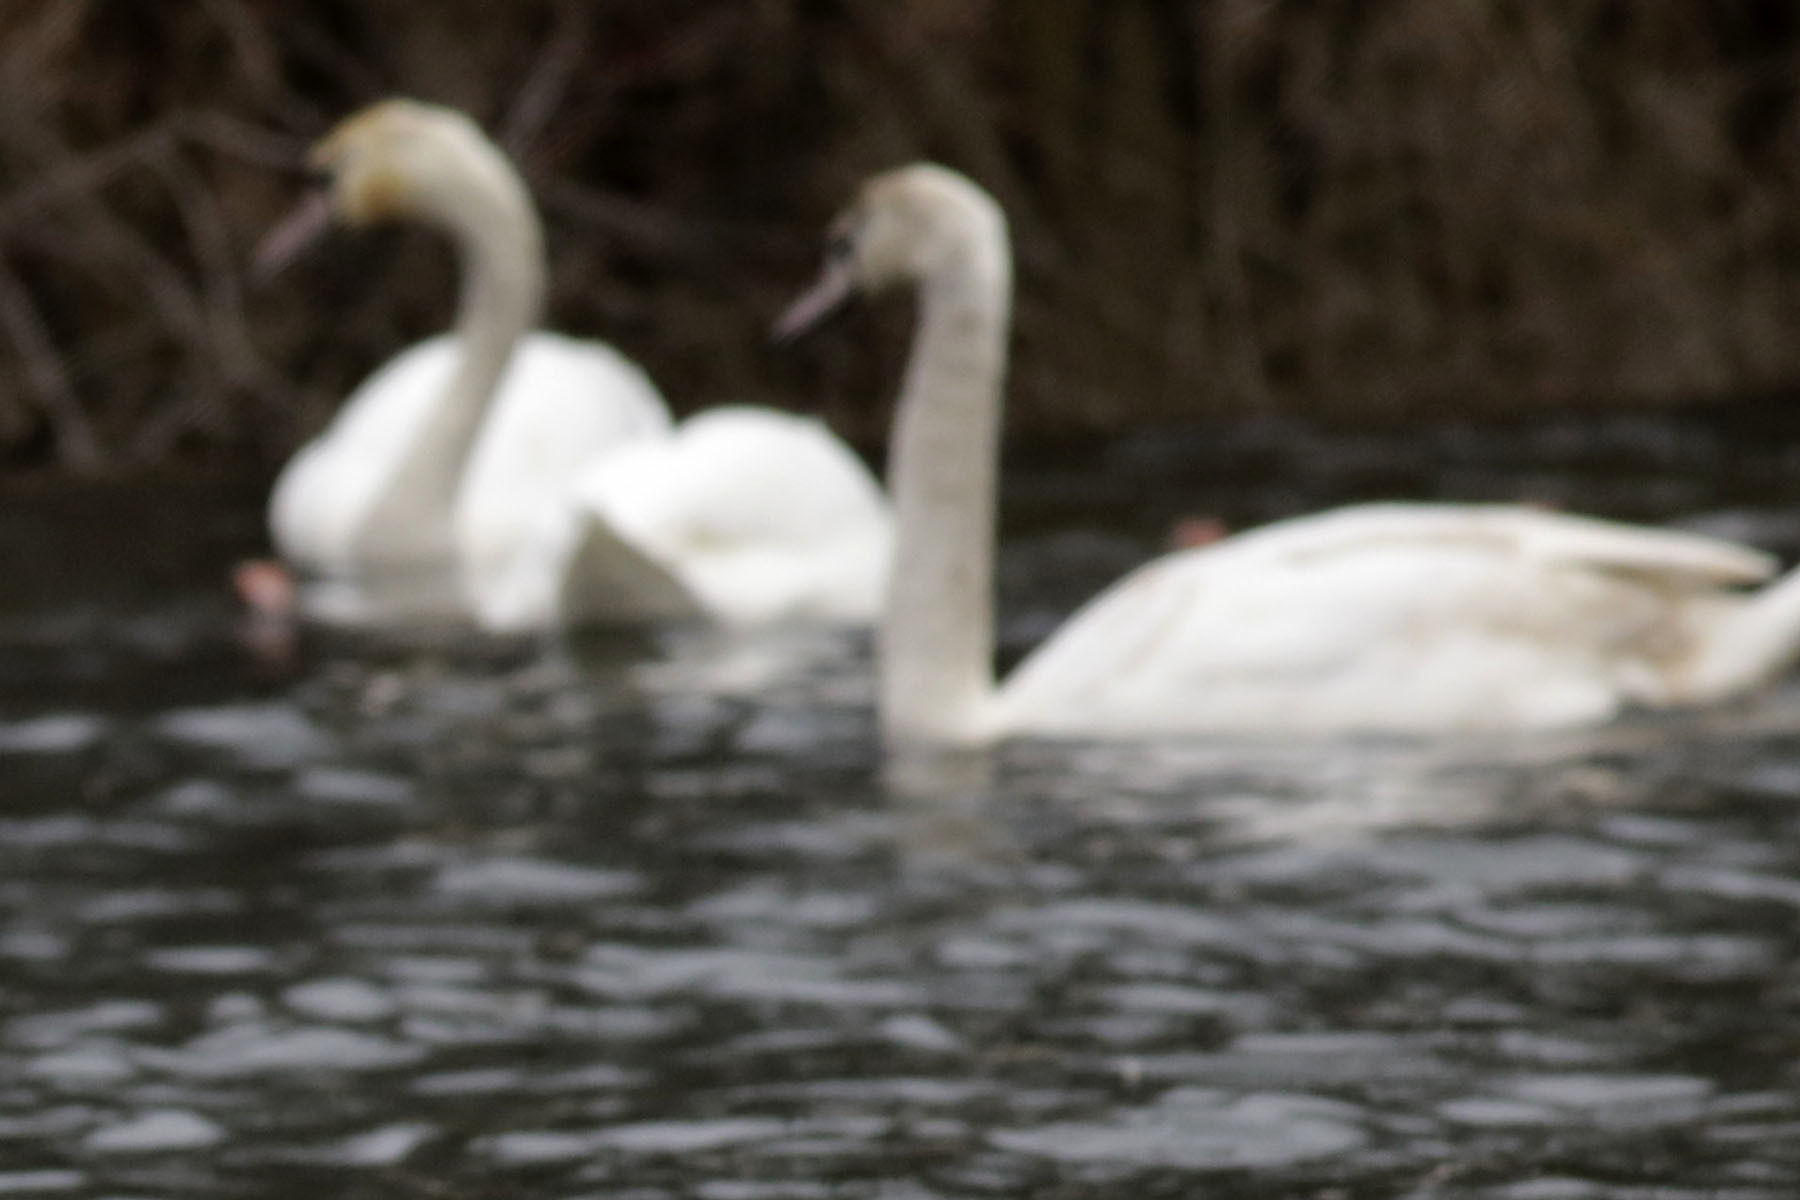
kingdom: Animalia
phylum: Chordata
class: Aves
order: Anseriformes
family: Anatidae
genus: Cygnus
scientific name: Cygnus olor
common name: Mute swan
